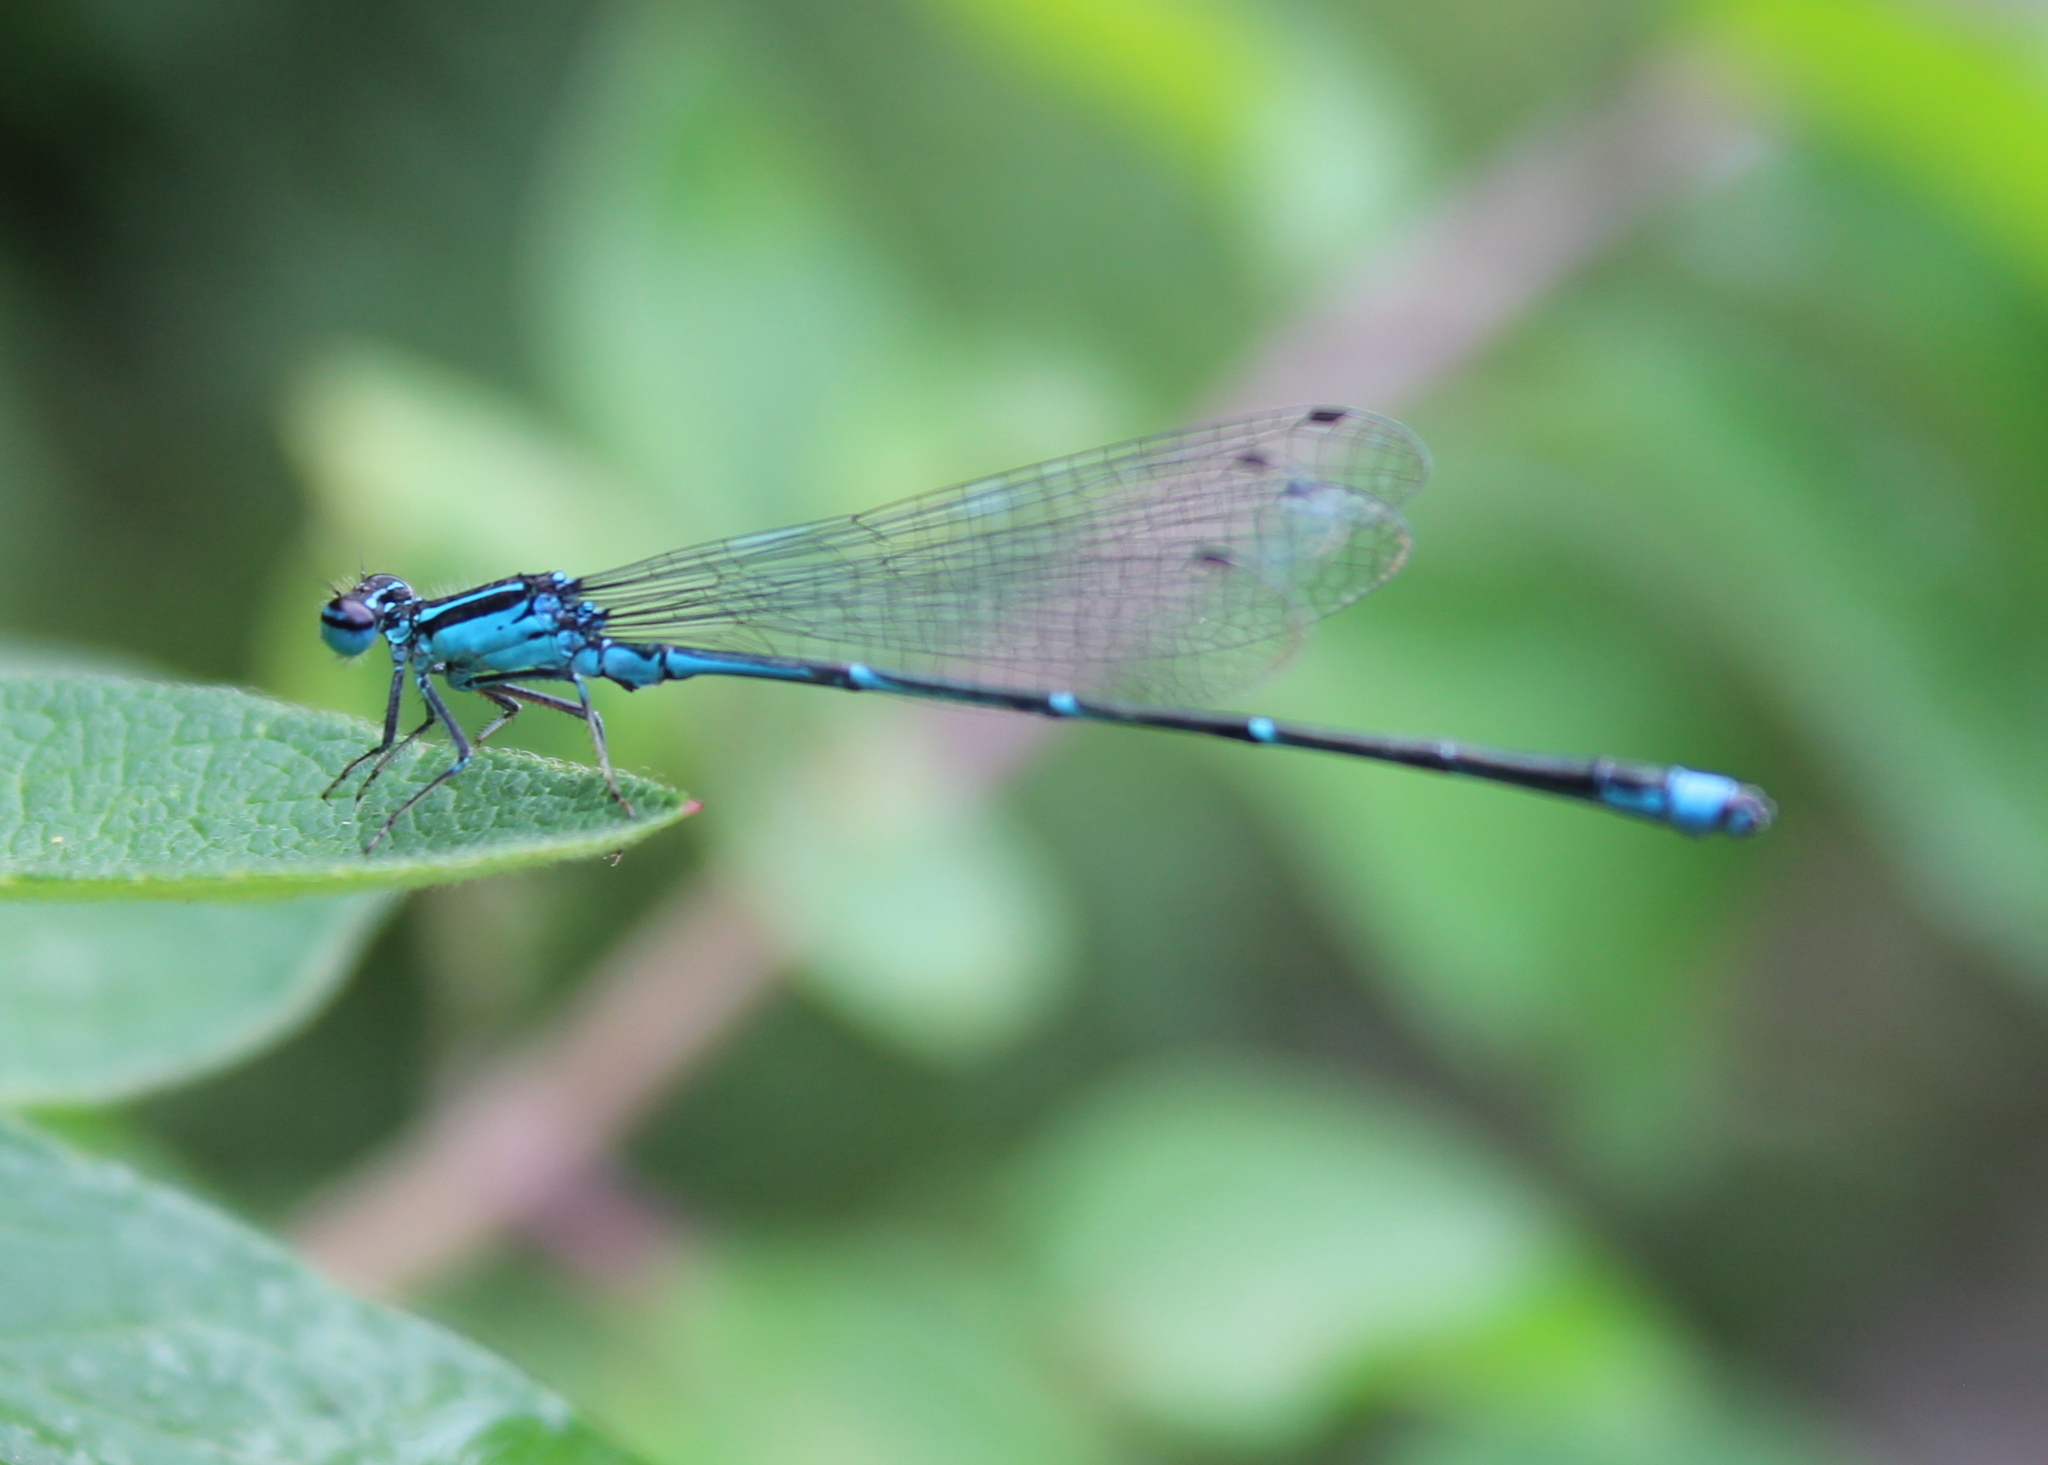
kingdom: Animalia
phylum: Arthropoda
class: Insecta
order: Odonata
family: Coenagrionidae
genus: Enallagma
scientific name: Enallagma exsulans
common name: Stream bluet
